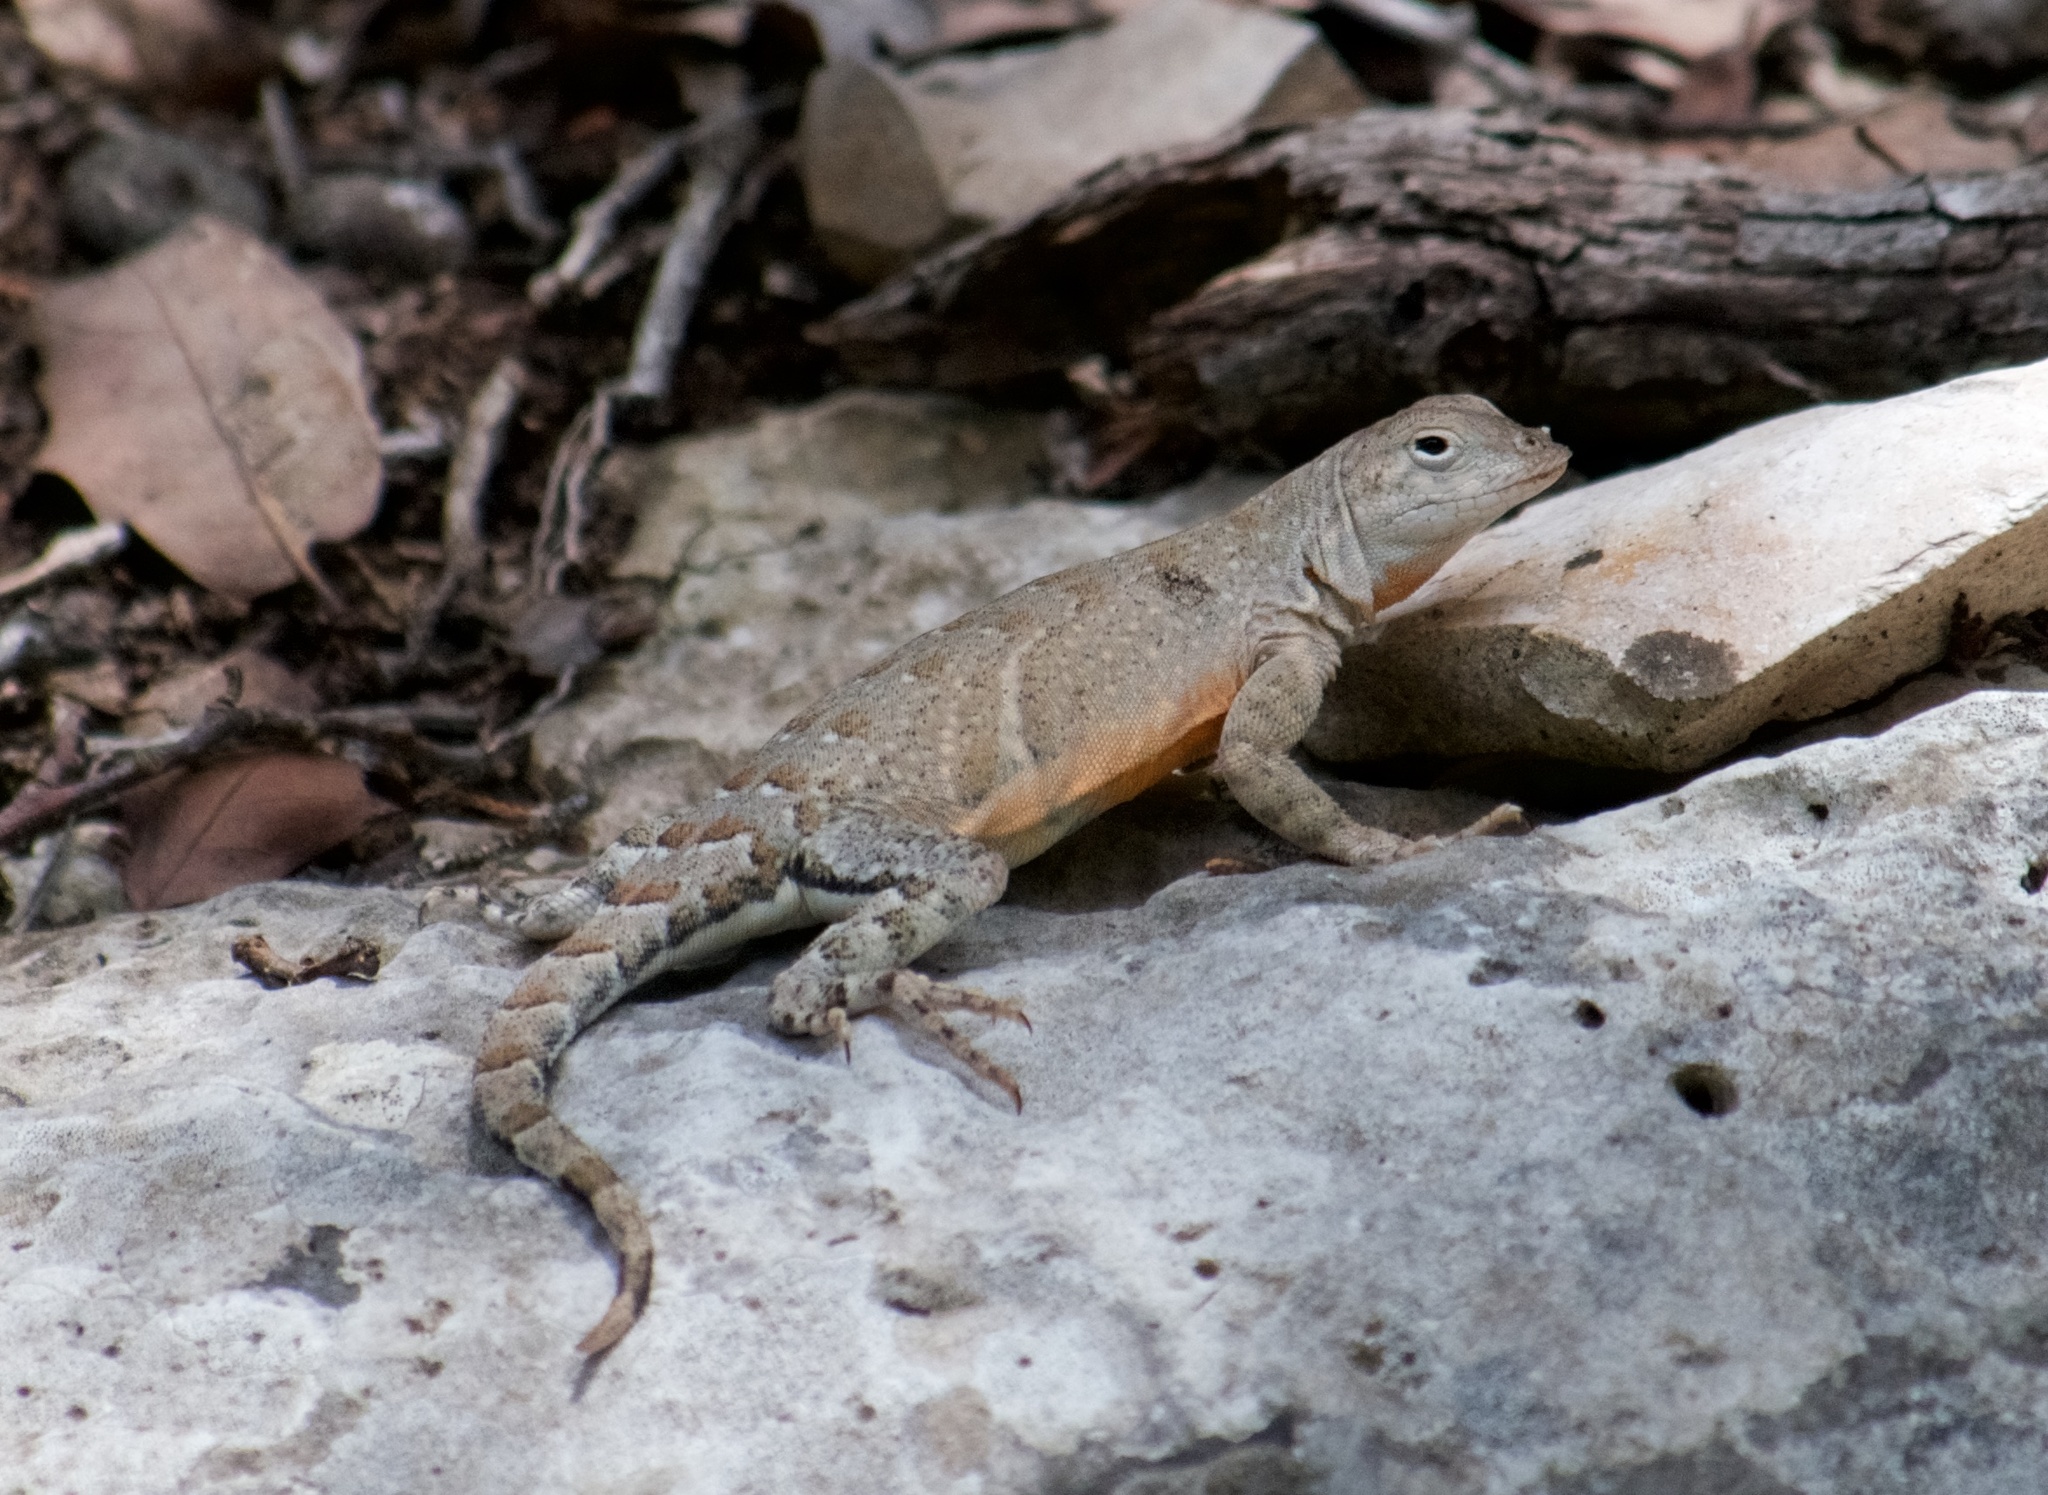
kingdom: Animalia
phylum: Chordata
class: Squamata
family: Phrynosomatidae
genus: Cophosaurus
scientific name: Cophosaurus texanus
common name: Greater earless lizard
